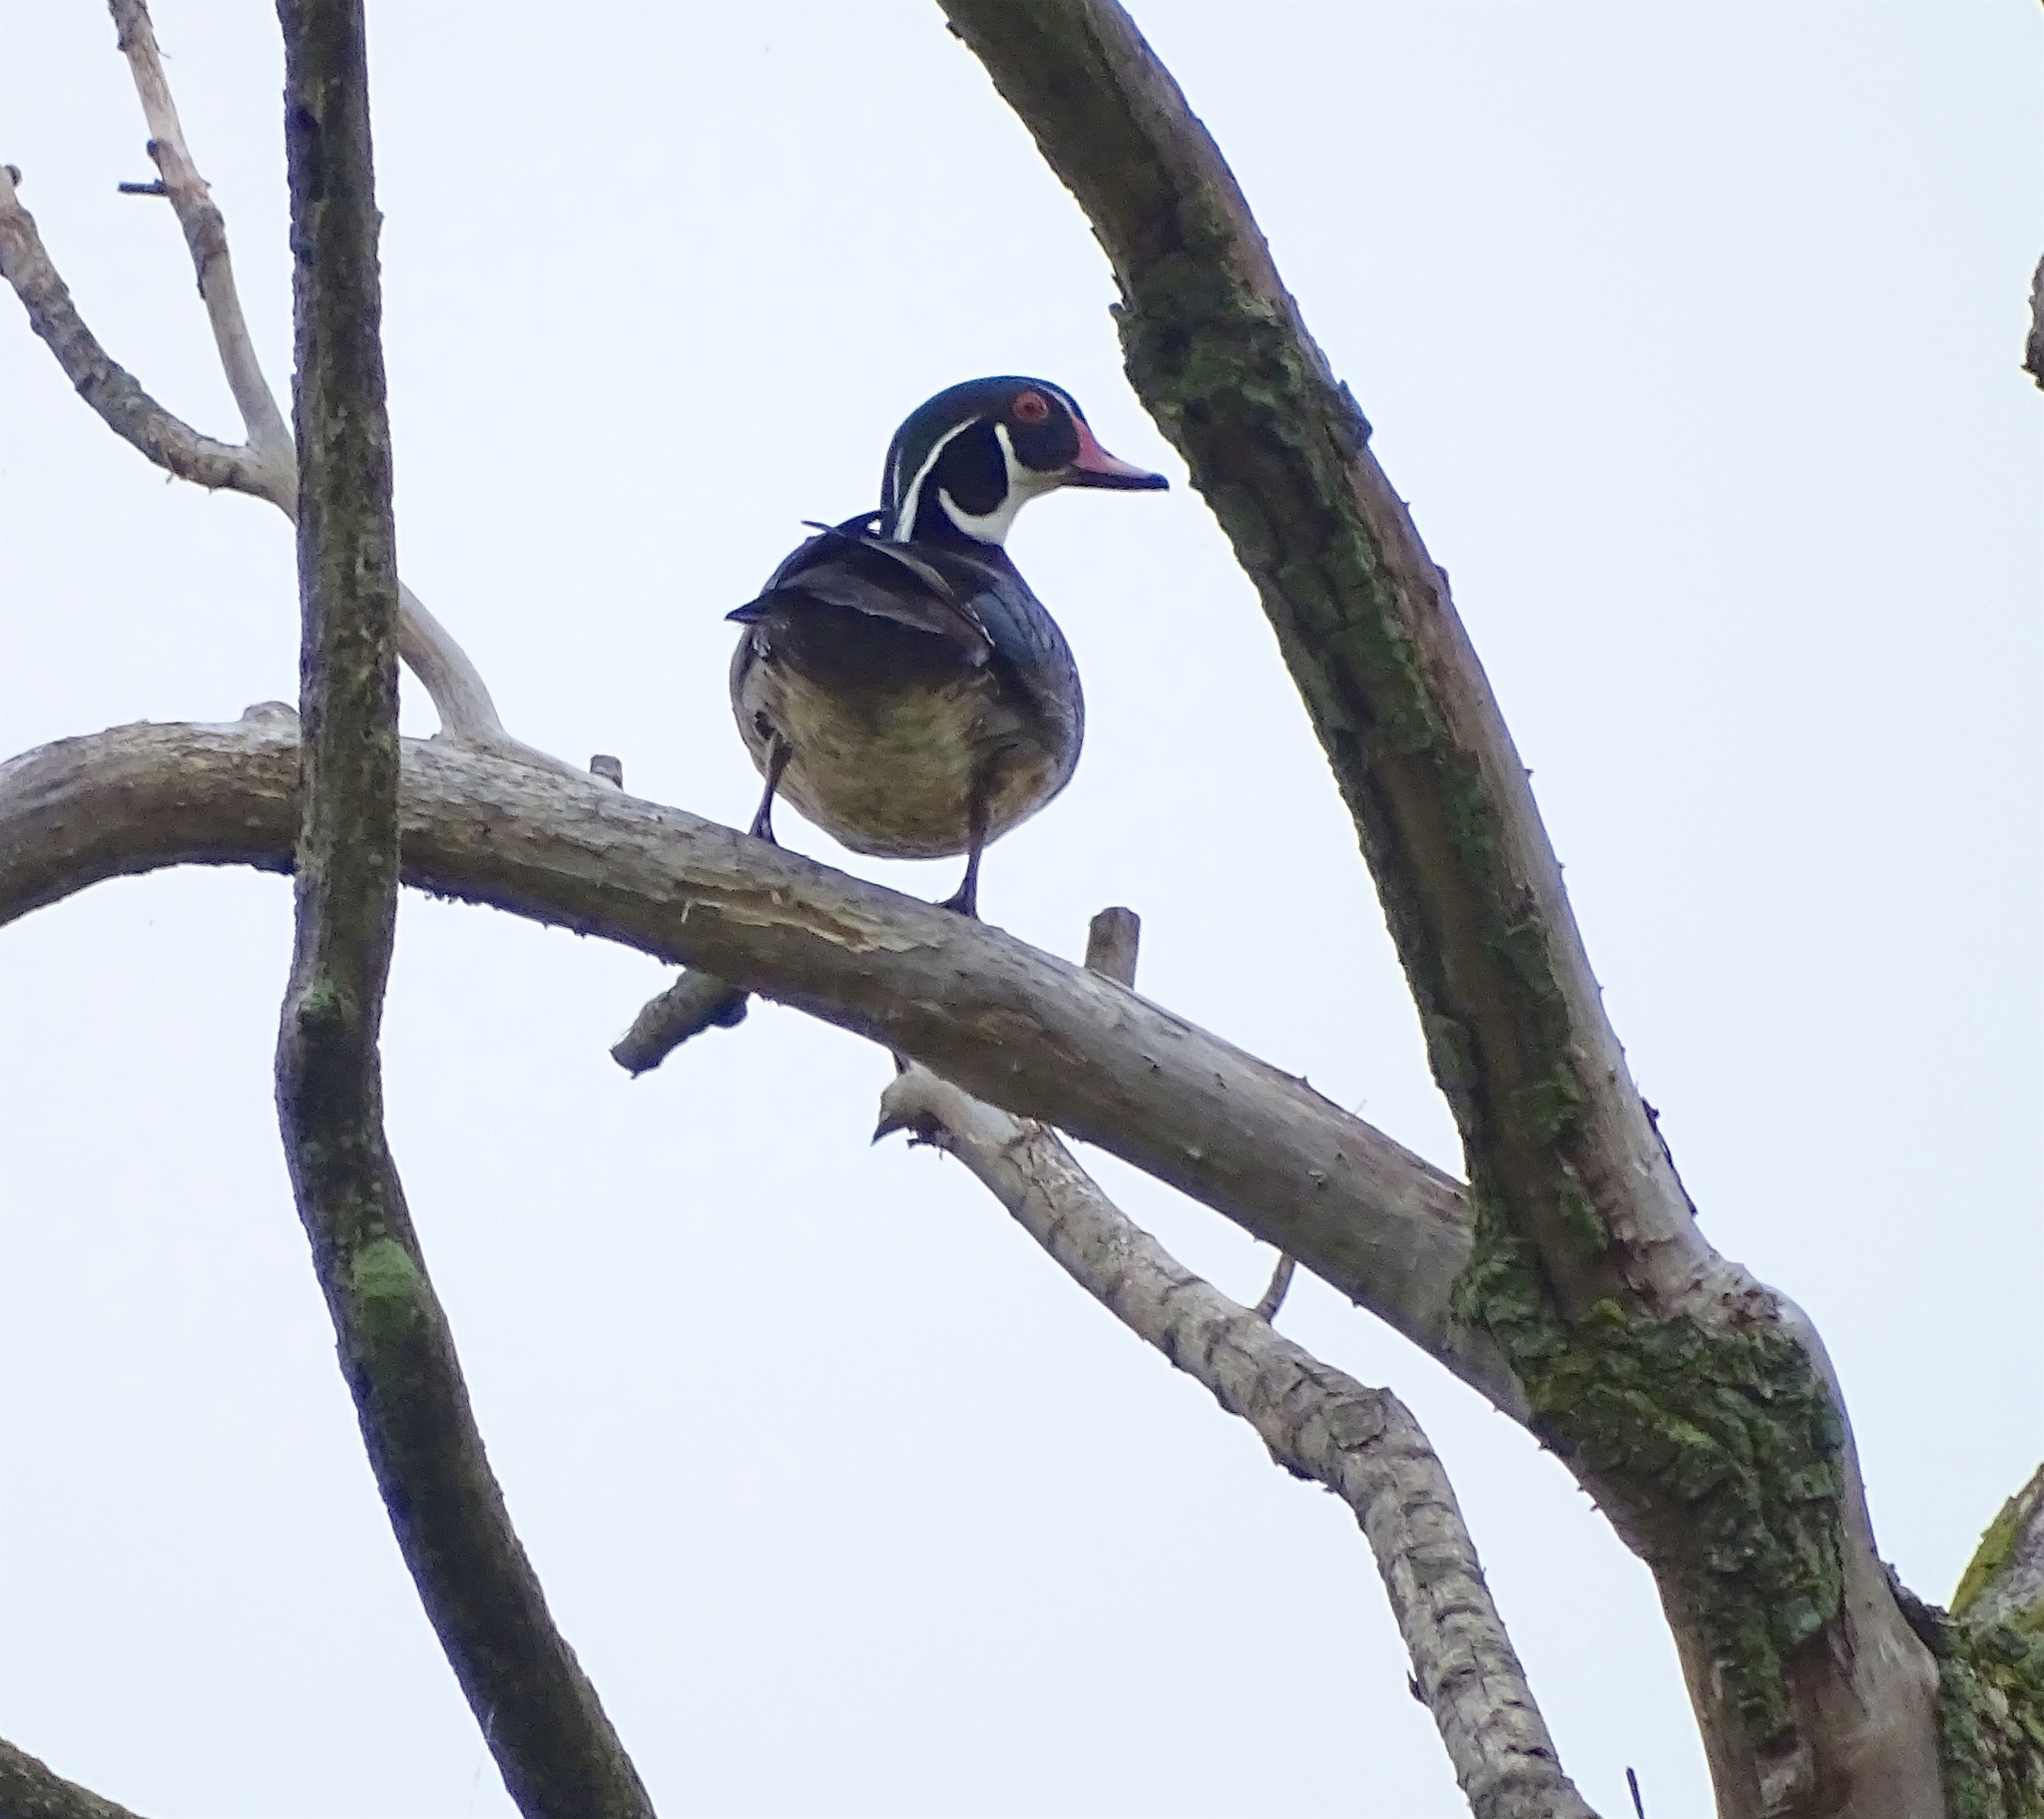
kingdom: Animalia
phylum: Chordata
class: Aves
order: Anseriformes
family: Anatidae
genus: Aix
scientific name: Aix sponsa
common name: Wood duck
